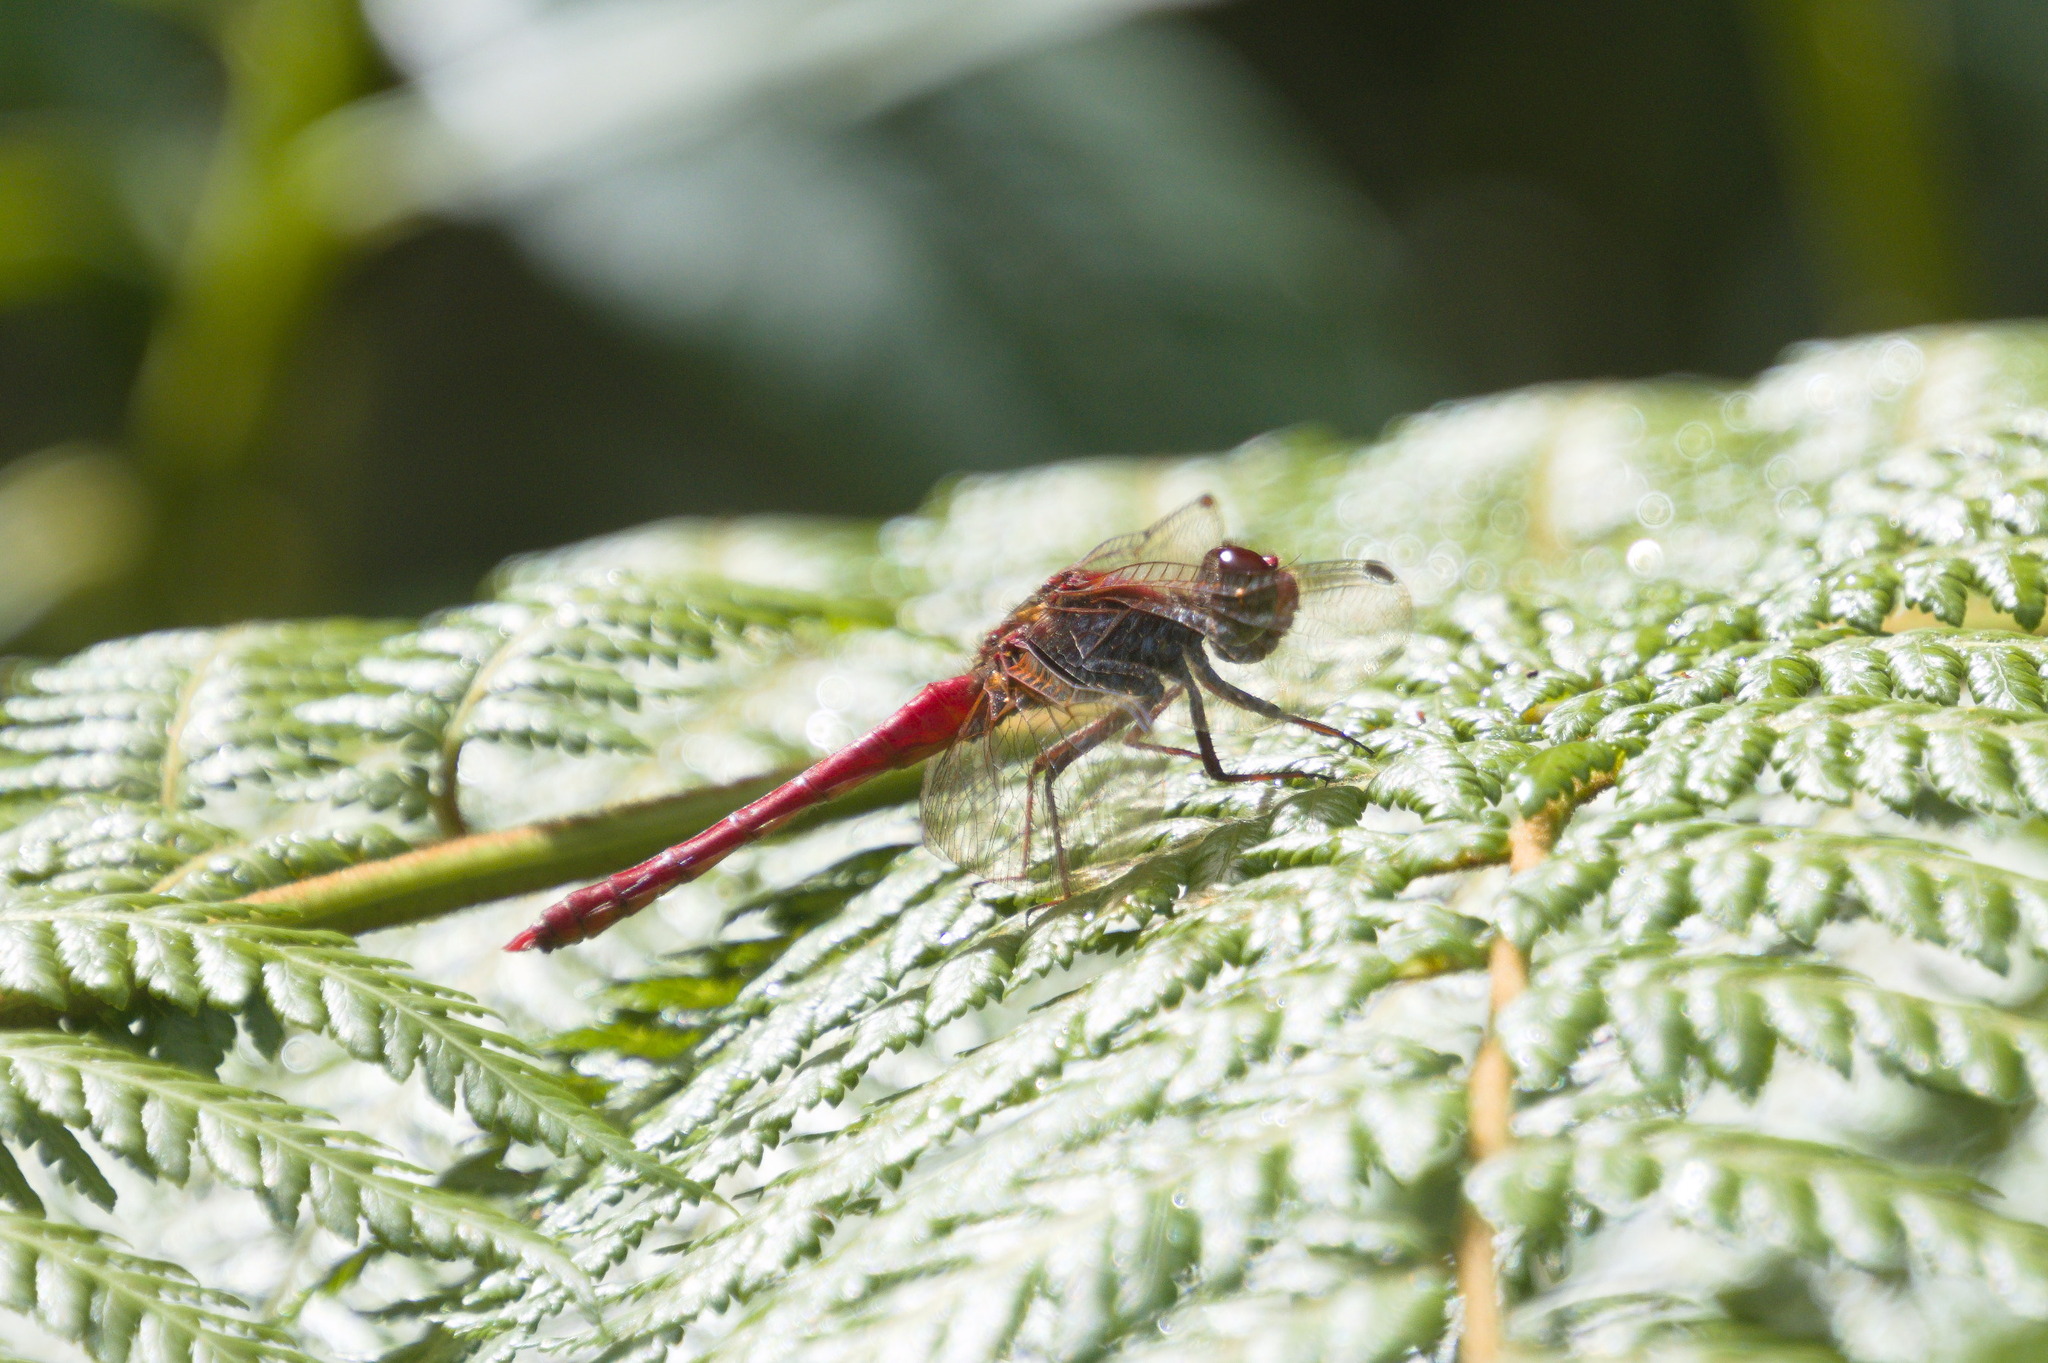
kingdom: Animalia
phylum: Arthropoda
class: Insecta
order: Odonata
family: Libellulidae
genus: Sympetrum
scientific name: Sympetrum gilvum
